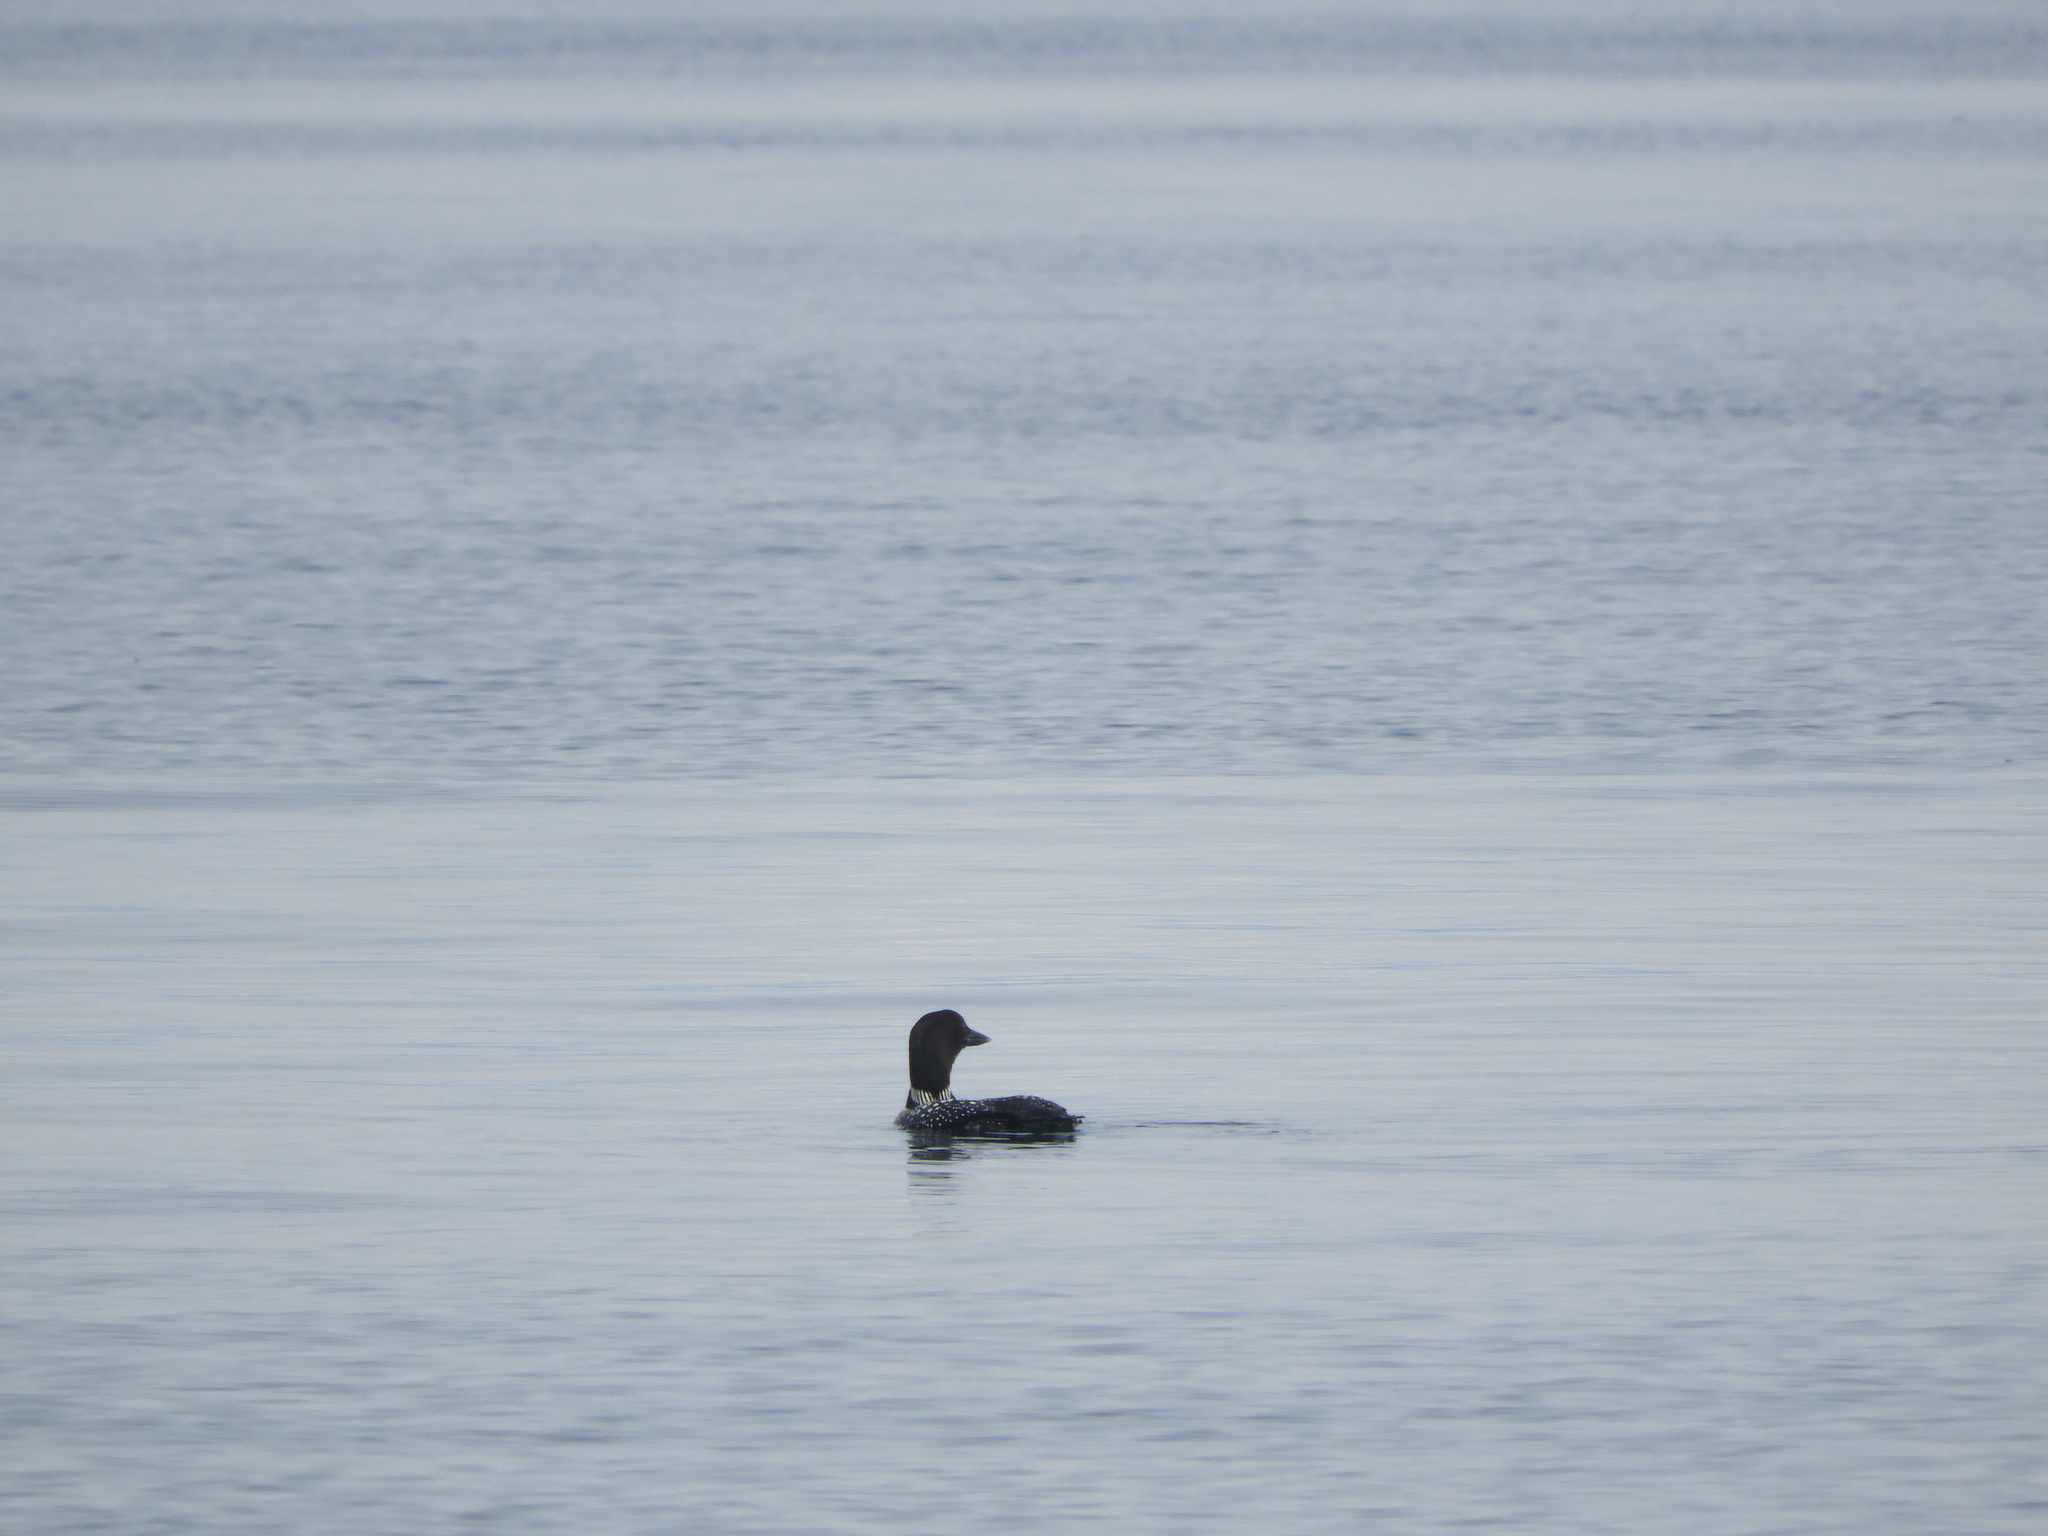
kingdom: Animalia
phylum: Chordata
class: Aves
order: Gaviiformes
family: Gaviidae
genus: Gavia
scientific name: Gavia immer
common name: Common loon
